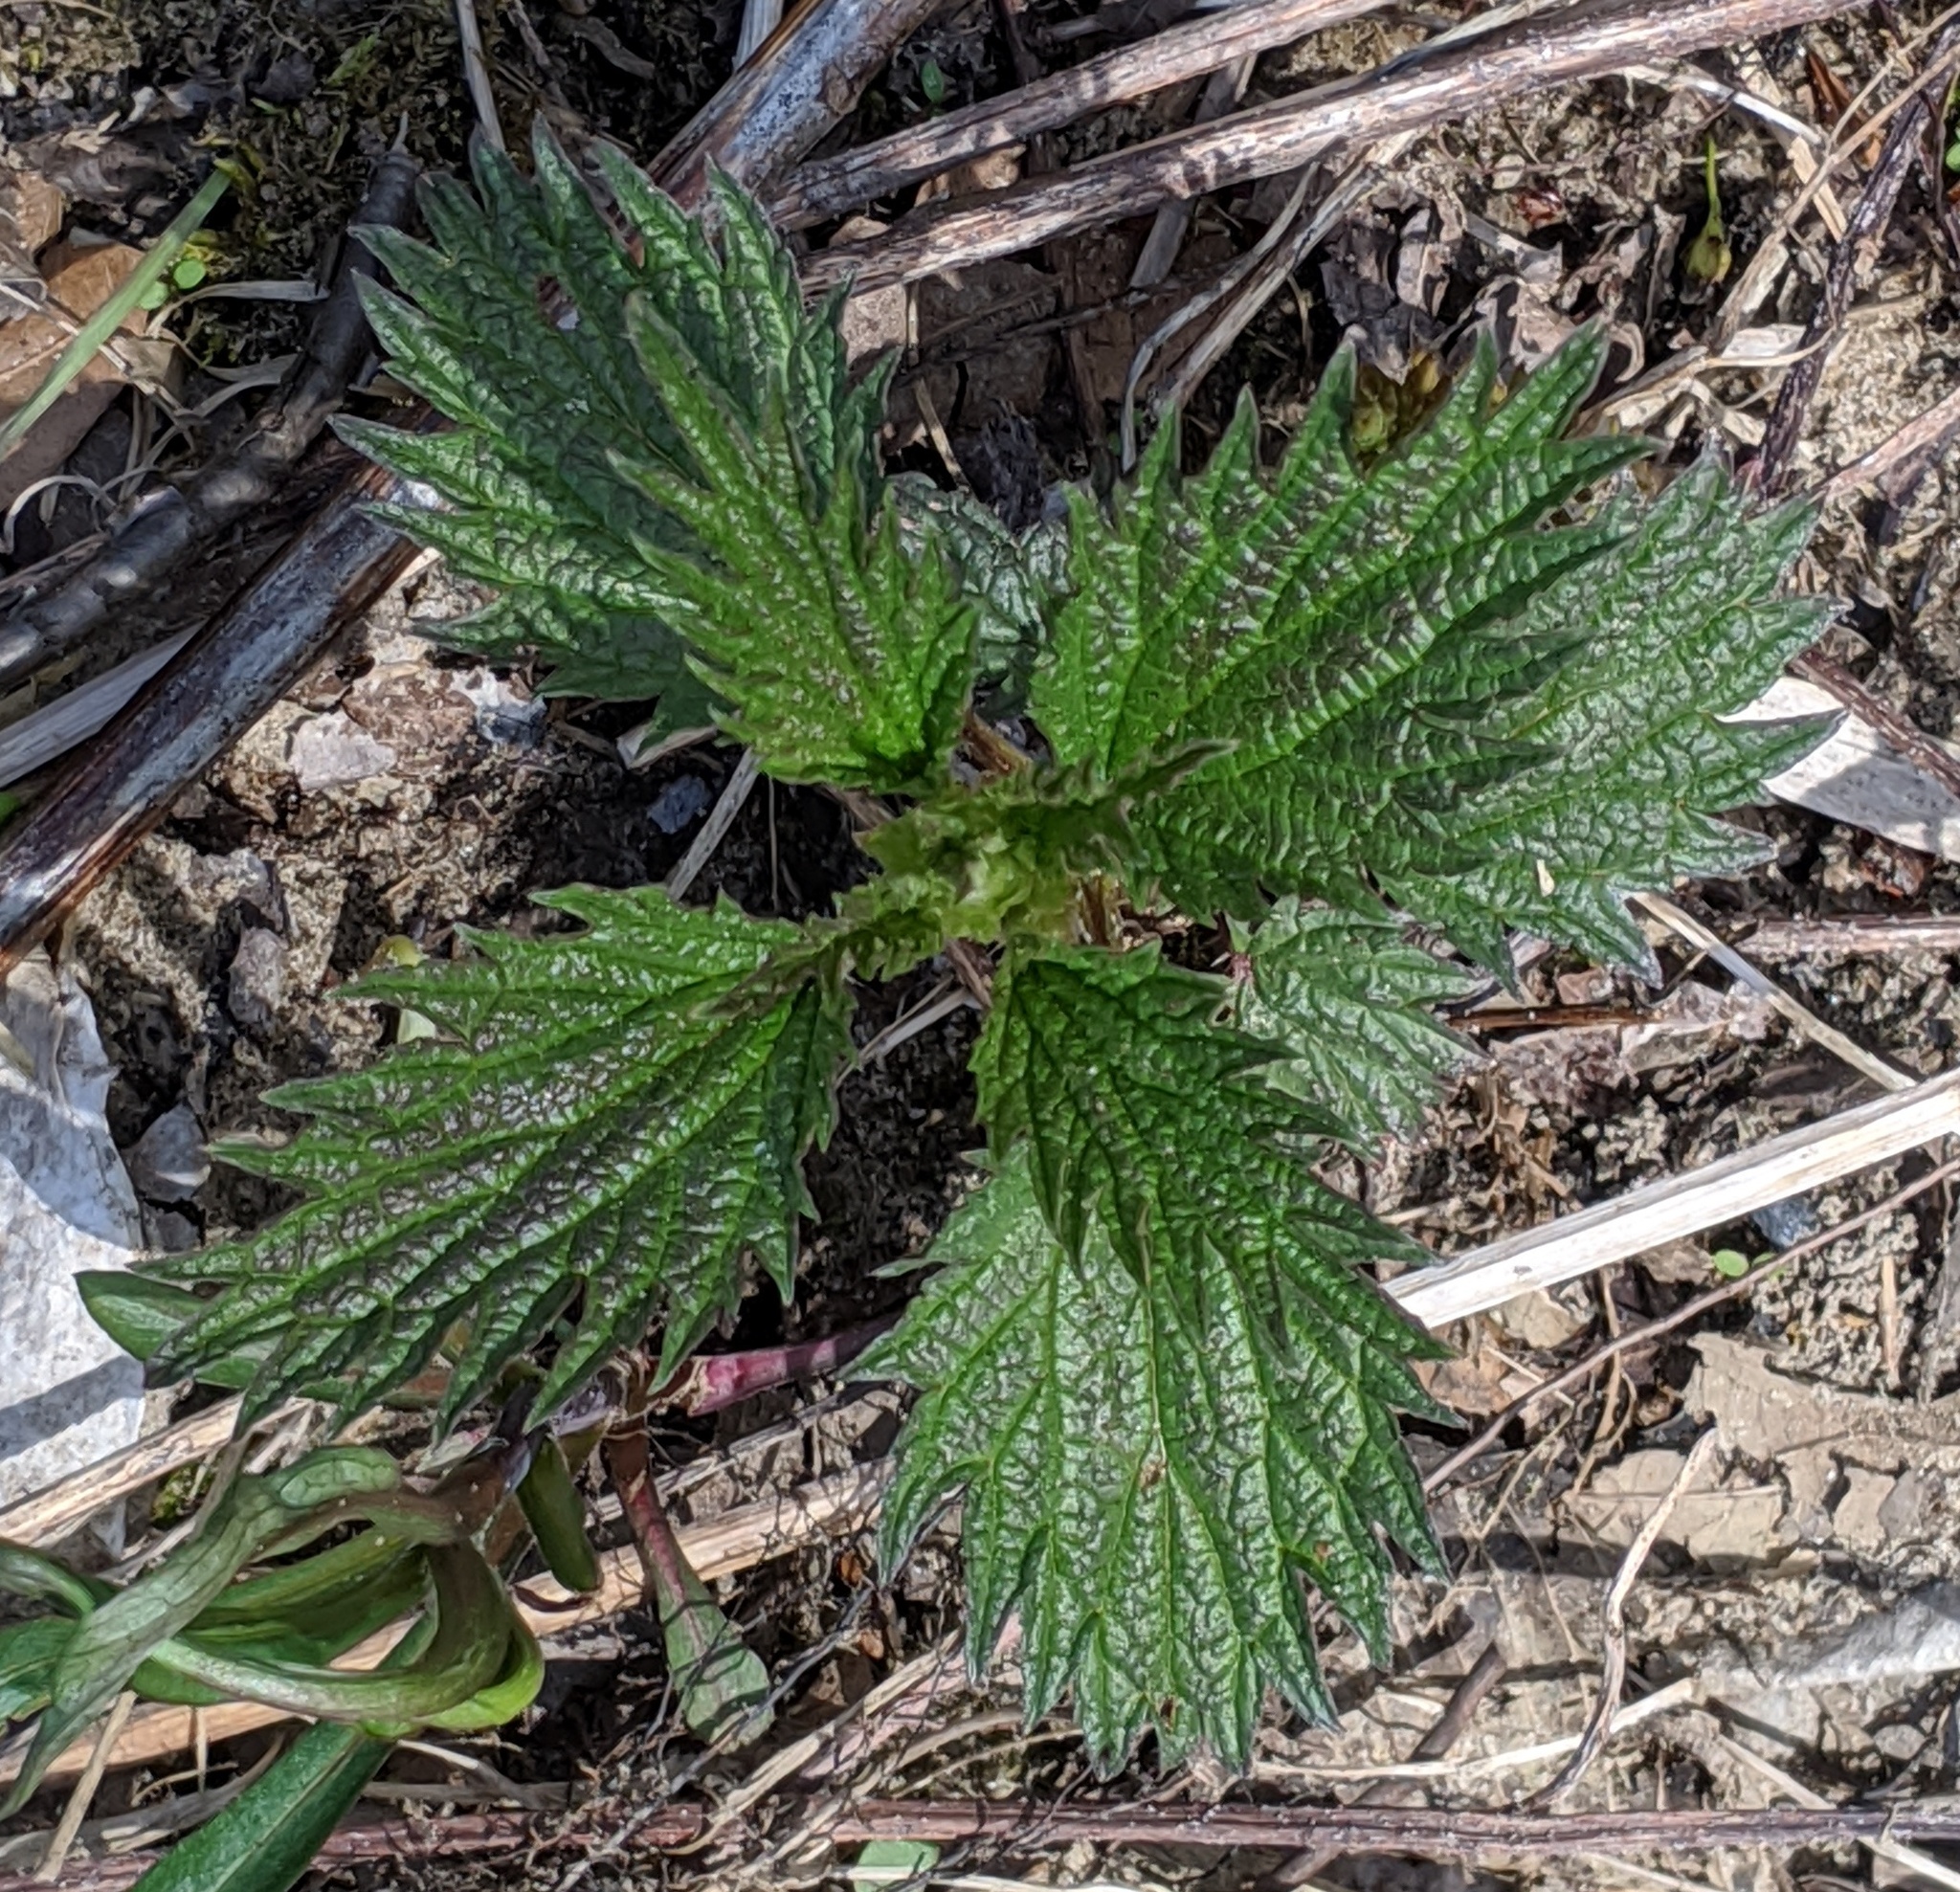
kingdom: Plantae
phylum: Tracheophyta
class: Magnoliopsida
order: Rosales
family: Urticaceae
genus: Urtica
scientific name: Urtica dioica
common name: Common nettle
